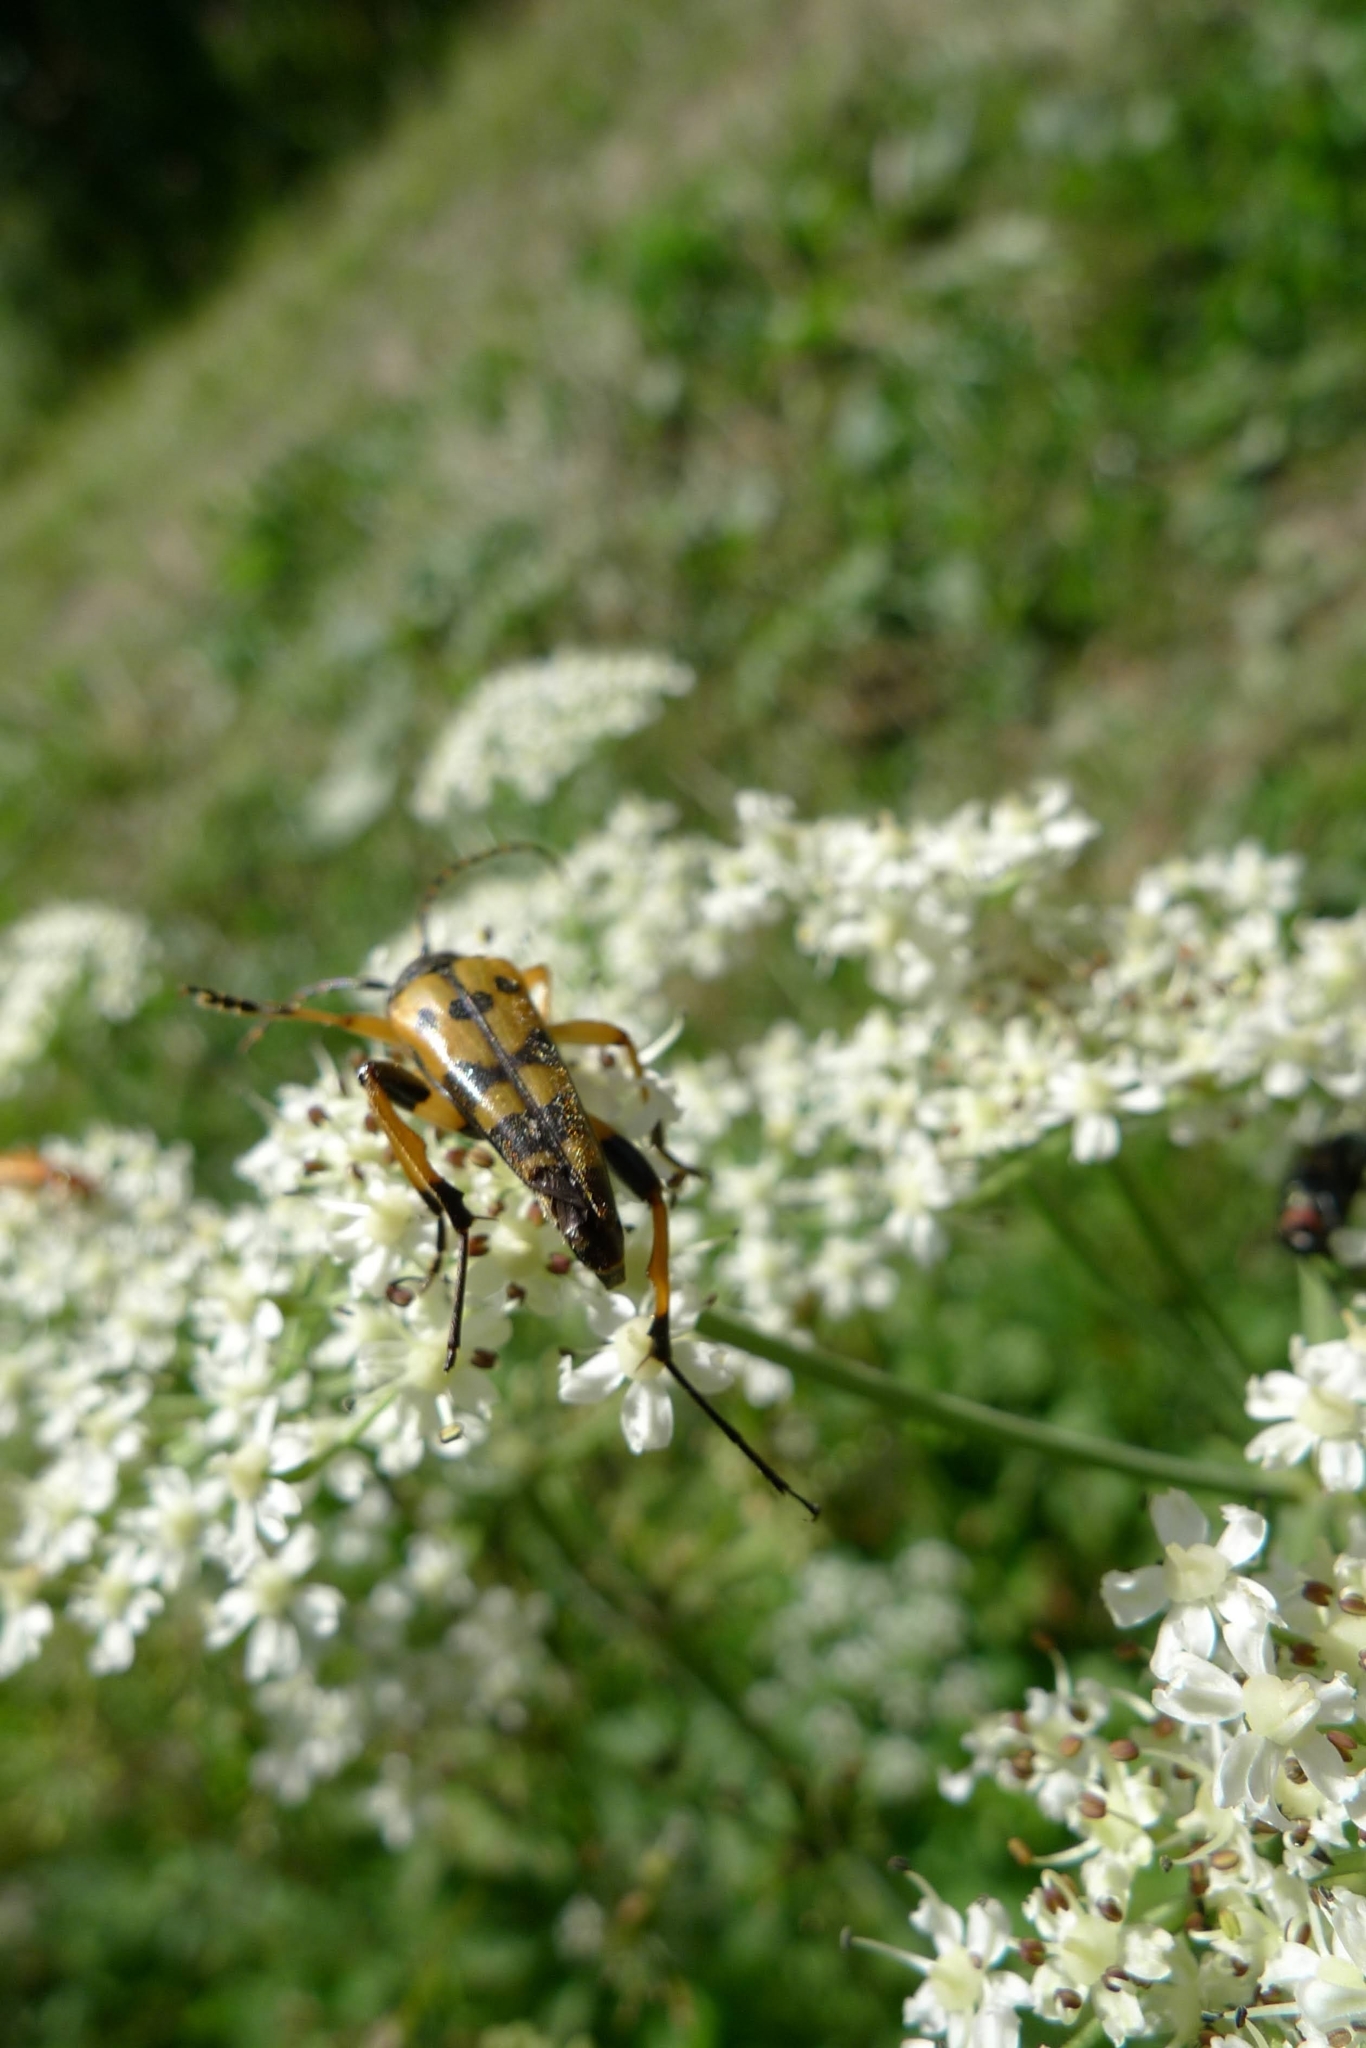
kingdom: Animalia
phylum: Arthropoda
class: Insecta
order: Coleoptera
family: Cerambycidae
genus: Rutpela
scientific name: Rutpela maculata
